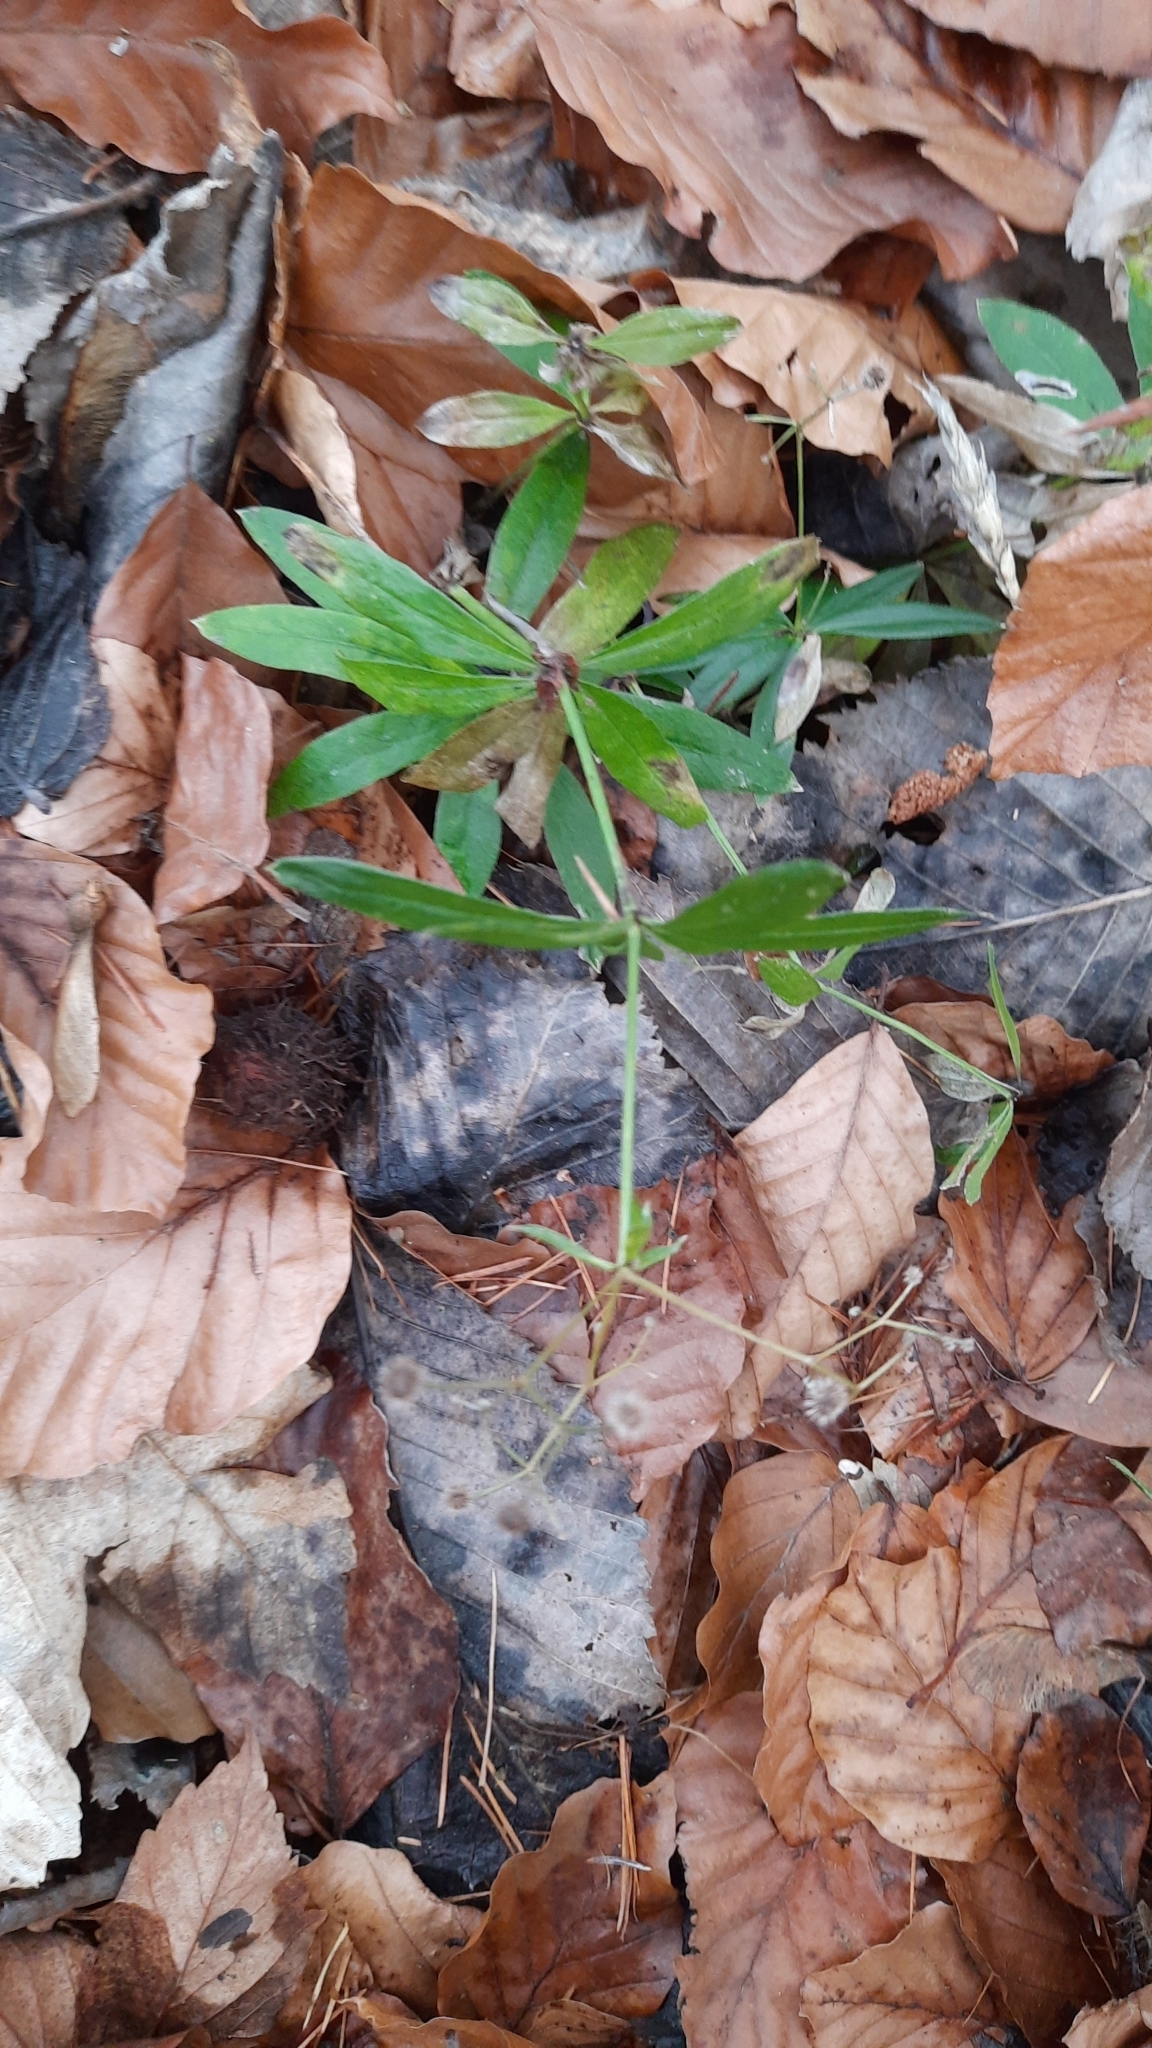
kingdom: Plantae
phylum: Tracheophyta
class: Magnoliopsida
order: Gentianales
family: Rubiaceae
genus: Galium
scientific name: Galium odoratum
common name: Sweet woodruff
